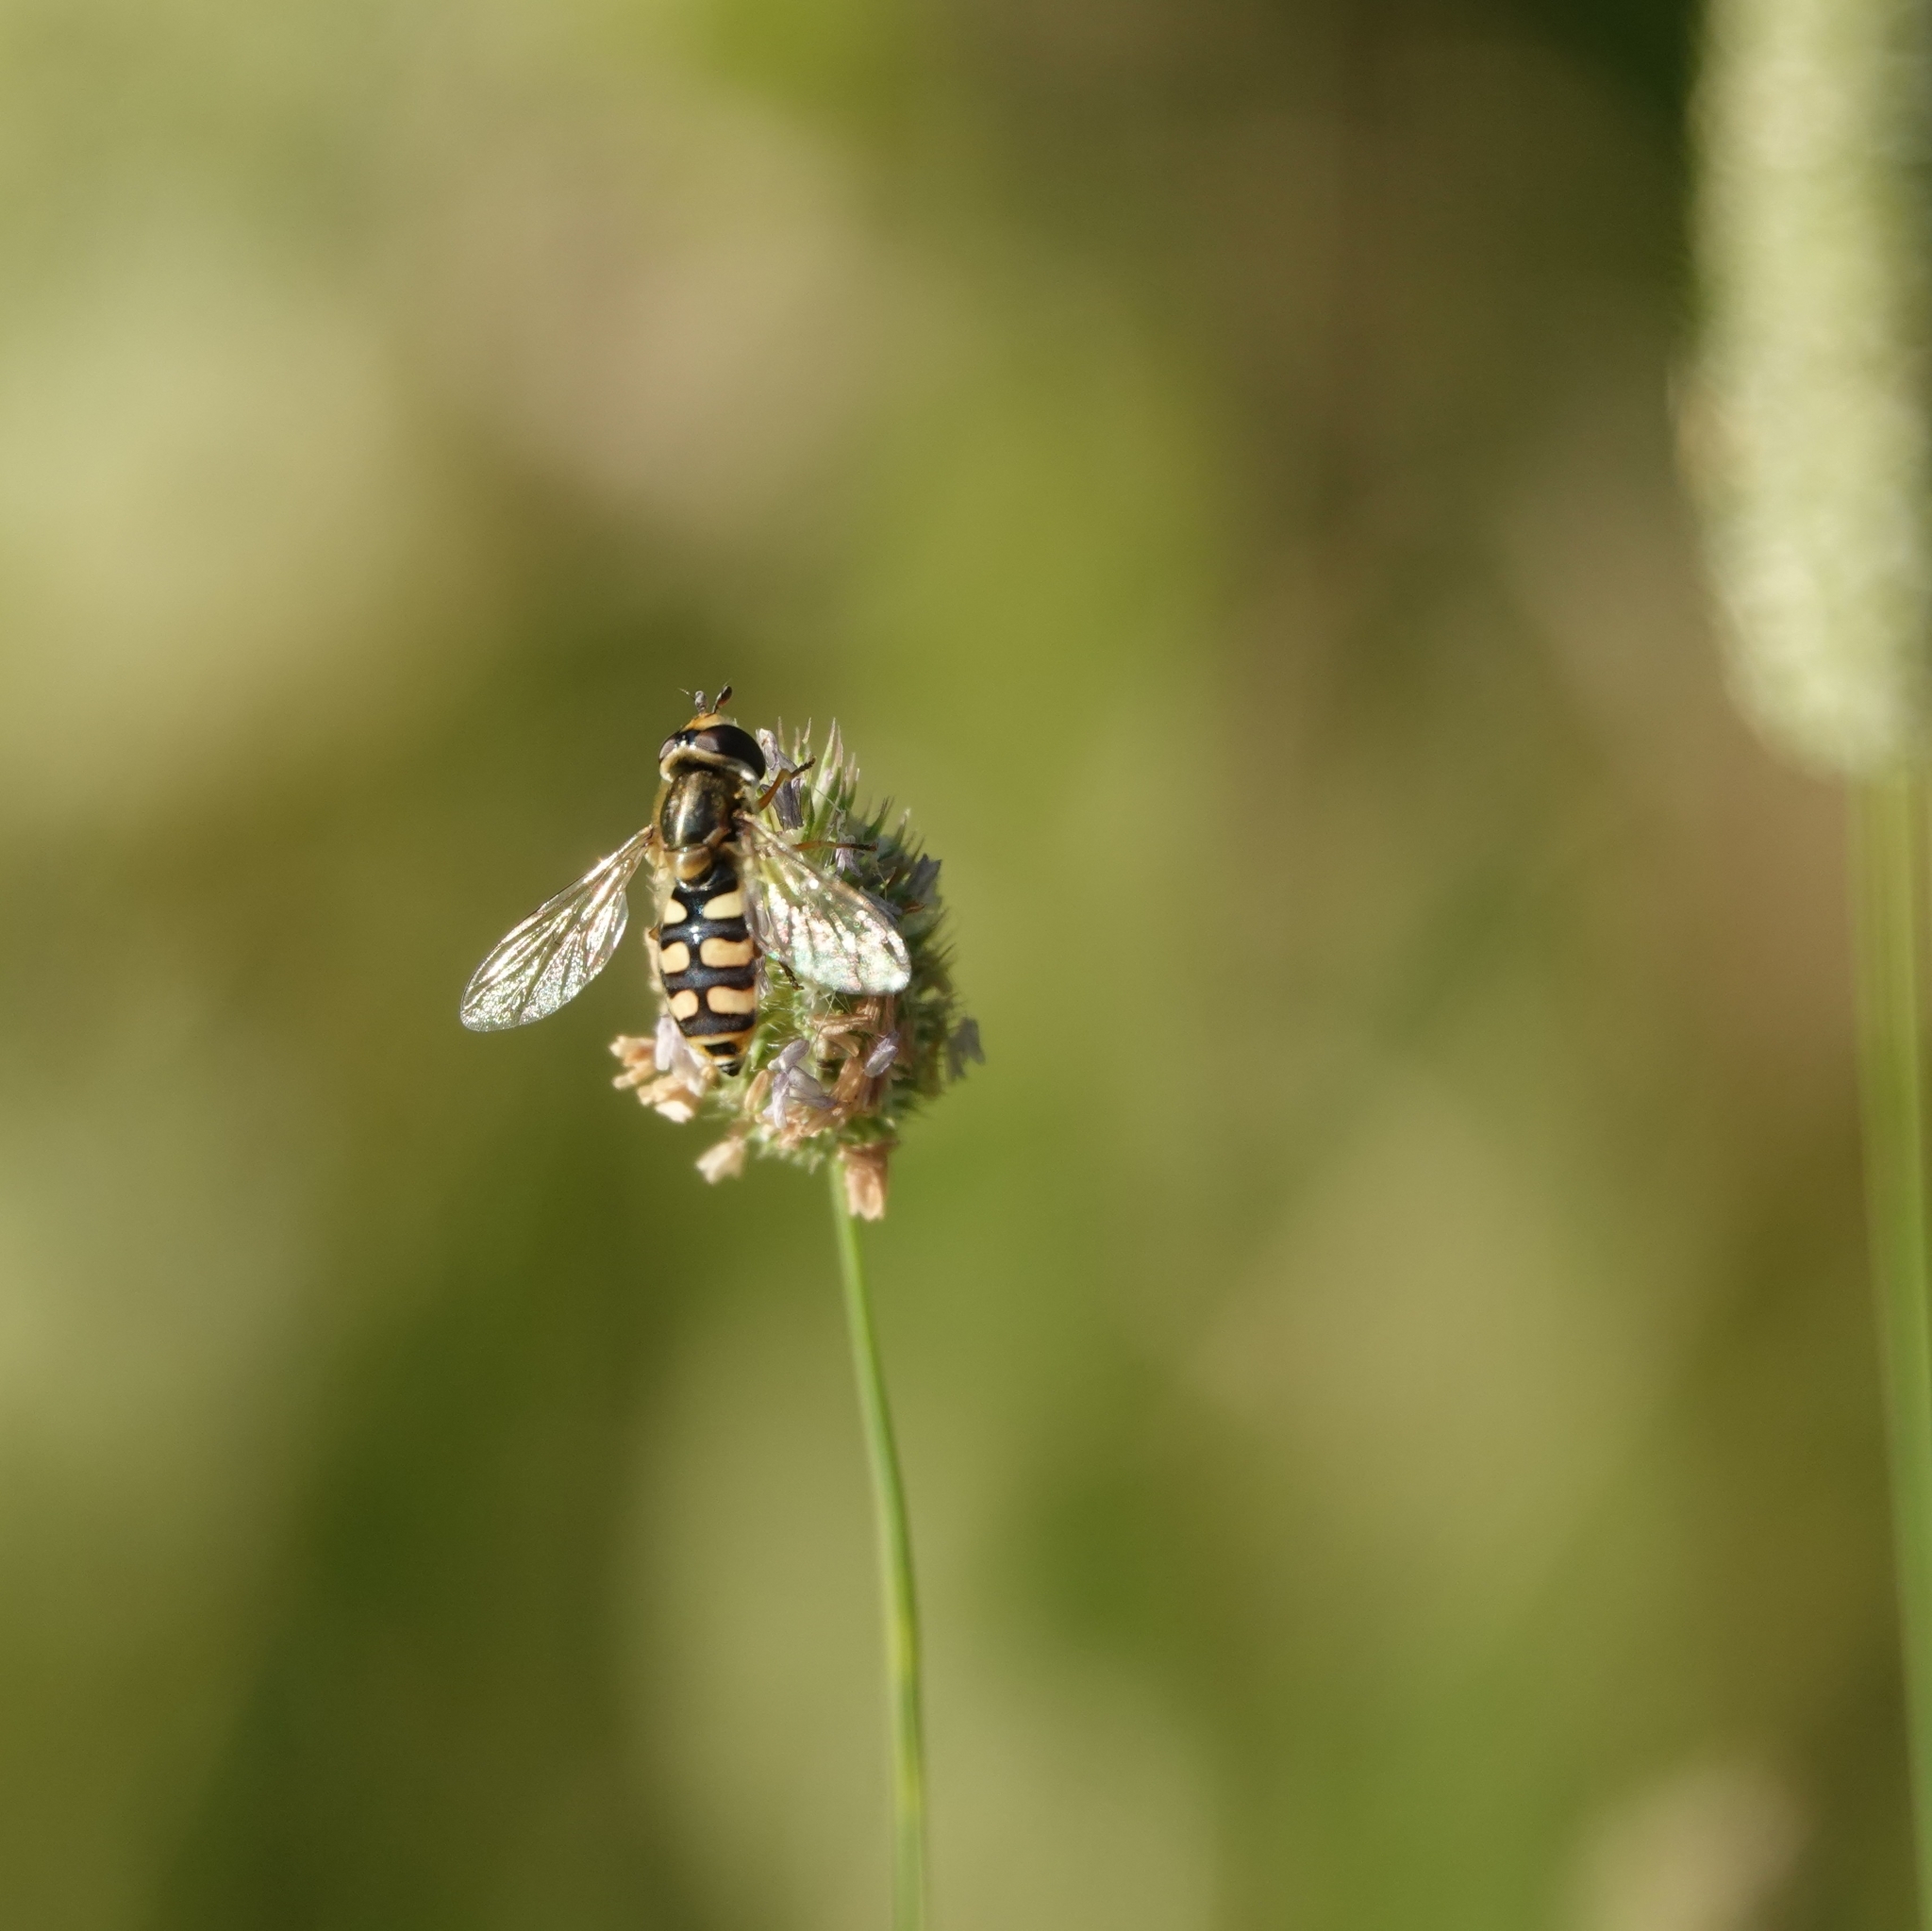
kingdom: Animalia
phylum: Arthropoda
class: Insecta
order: Diptera
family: Syrphidae
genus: Eupeodes
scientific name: Eupeodes corollae
